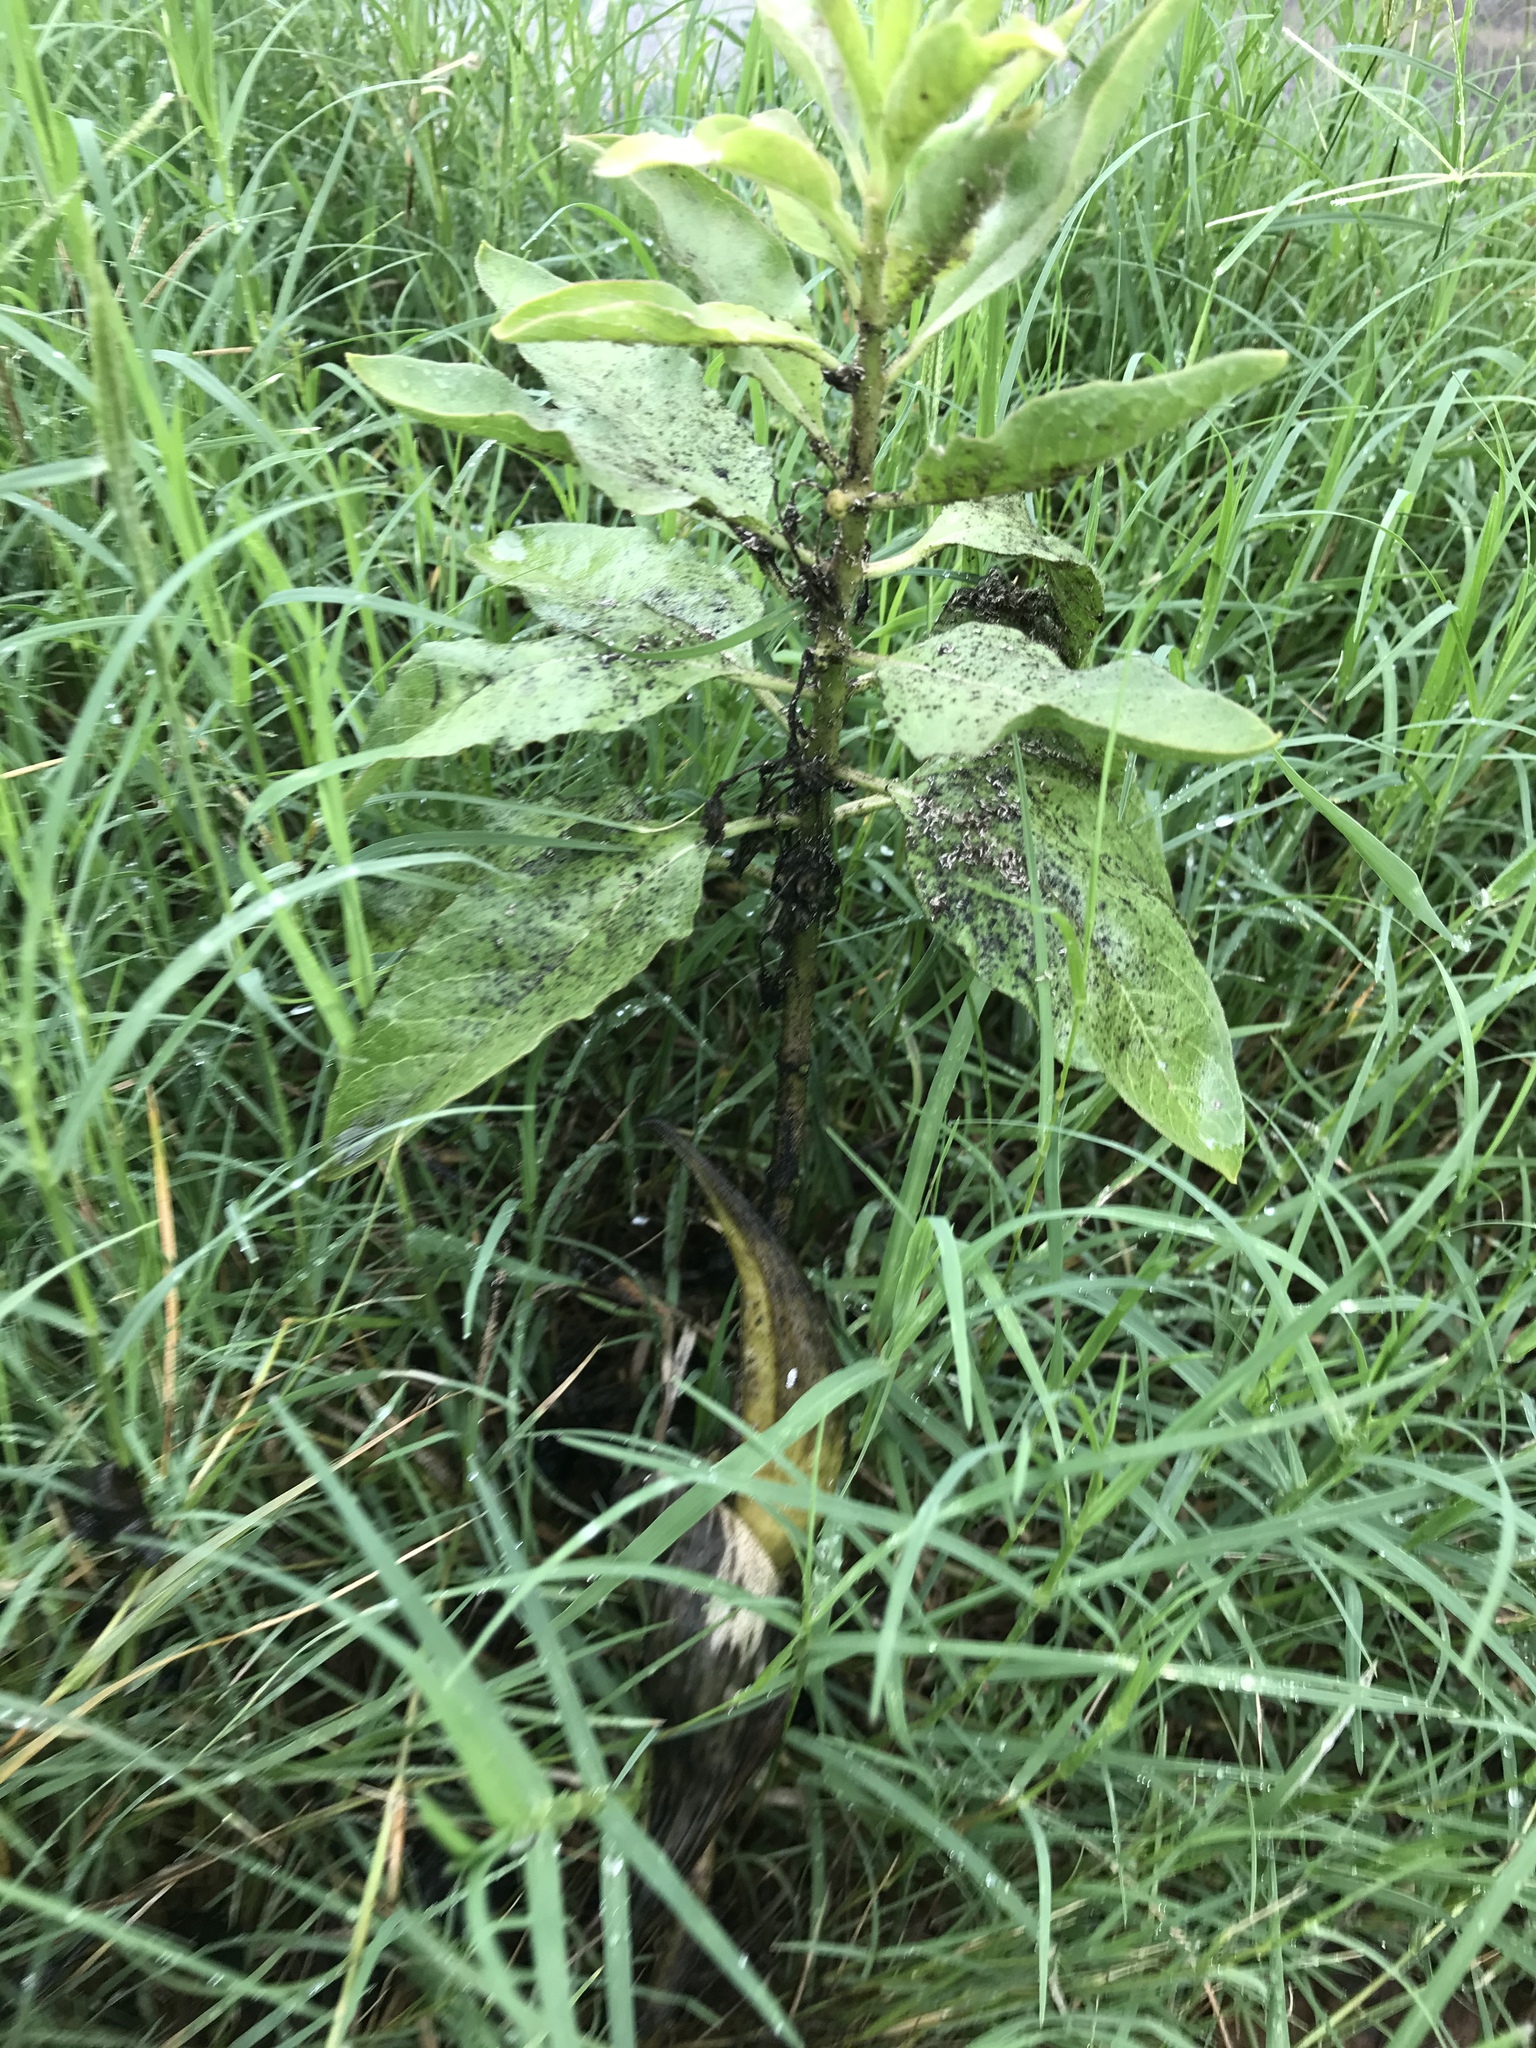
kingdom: Plantae
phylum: Tracheophyta
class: Magnoliopsida
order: Gentianales
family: Apocynaceae
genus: Asclepias
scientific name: Asclepias oenotheroides
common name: Zizotes milkweed
